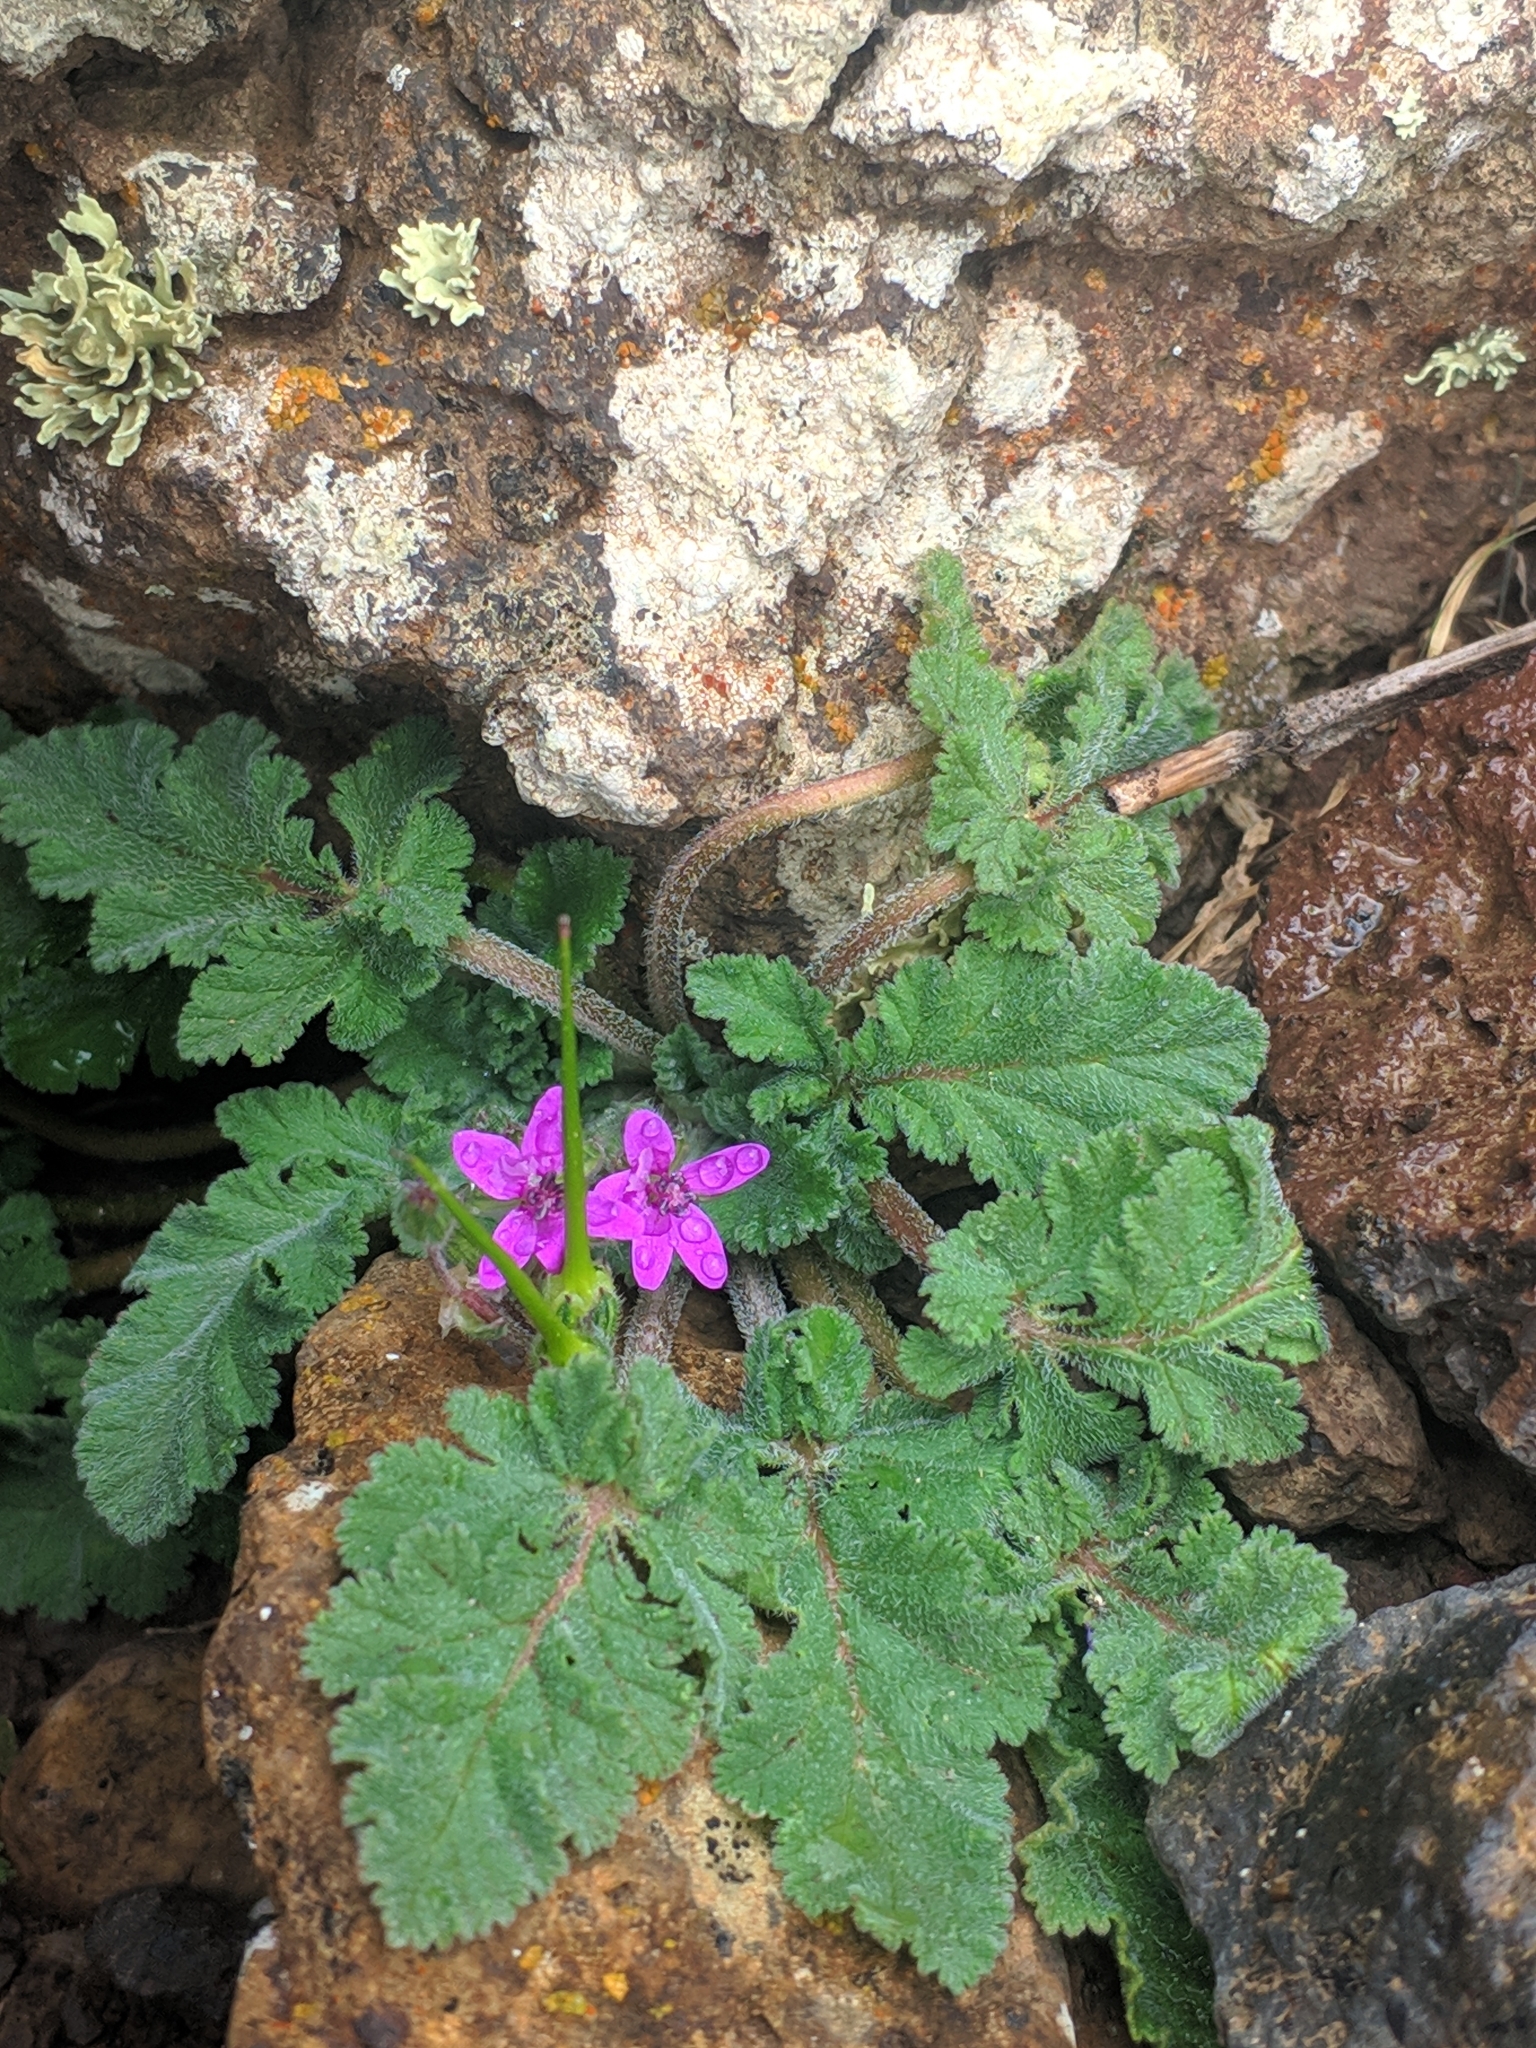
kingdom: Plantae
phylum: Tracheophyta
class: Magnoliopsida
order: Geraniales
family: Geraniaceae
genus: Erodium
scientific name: Erodium malacoides
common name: Soft stork's-bill
